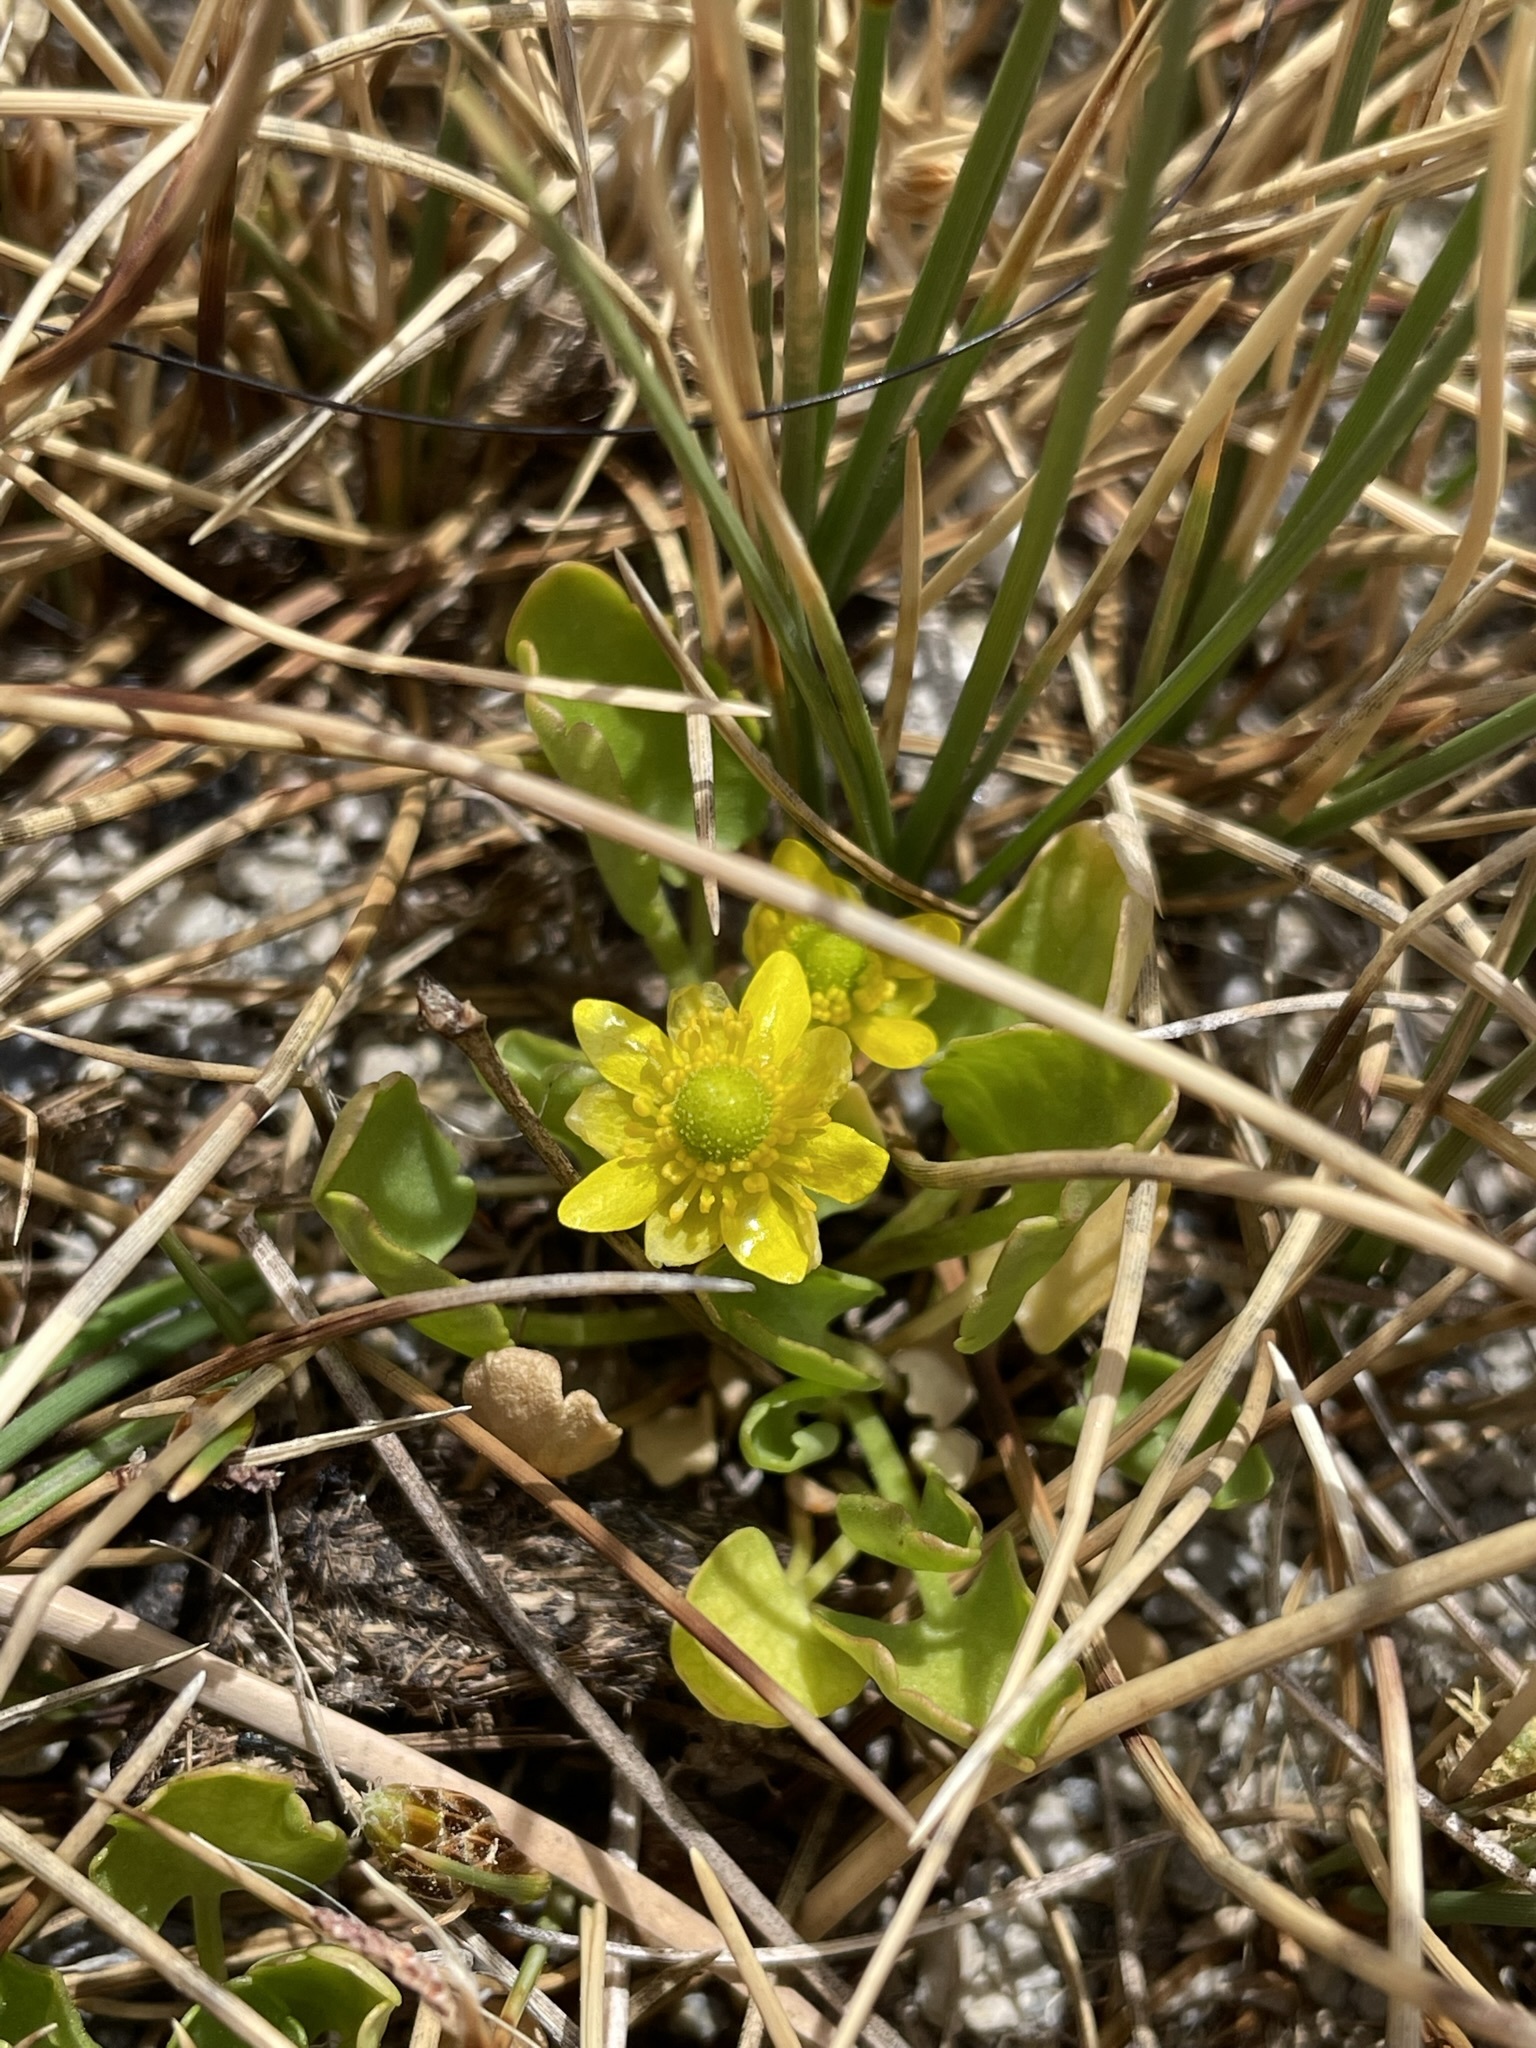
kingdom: Plantae
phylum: Tracheophyta
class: Magnoliopsida
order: Ranunculales
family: Ranunculaceae
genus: Halerpestes
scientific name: Halerpestes cymbalaria
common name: Seaside crowfoot
